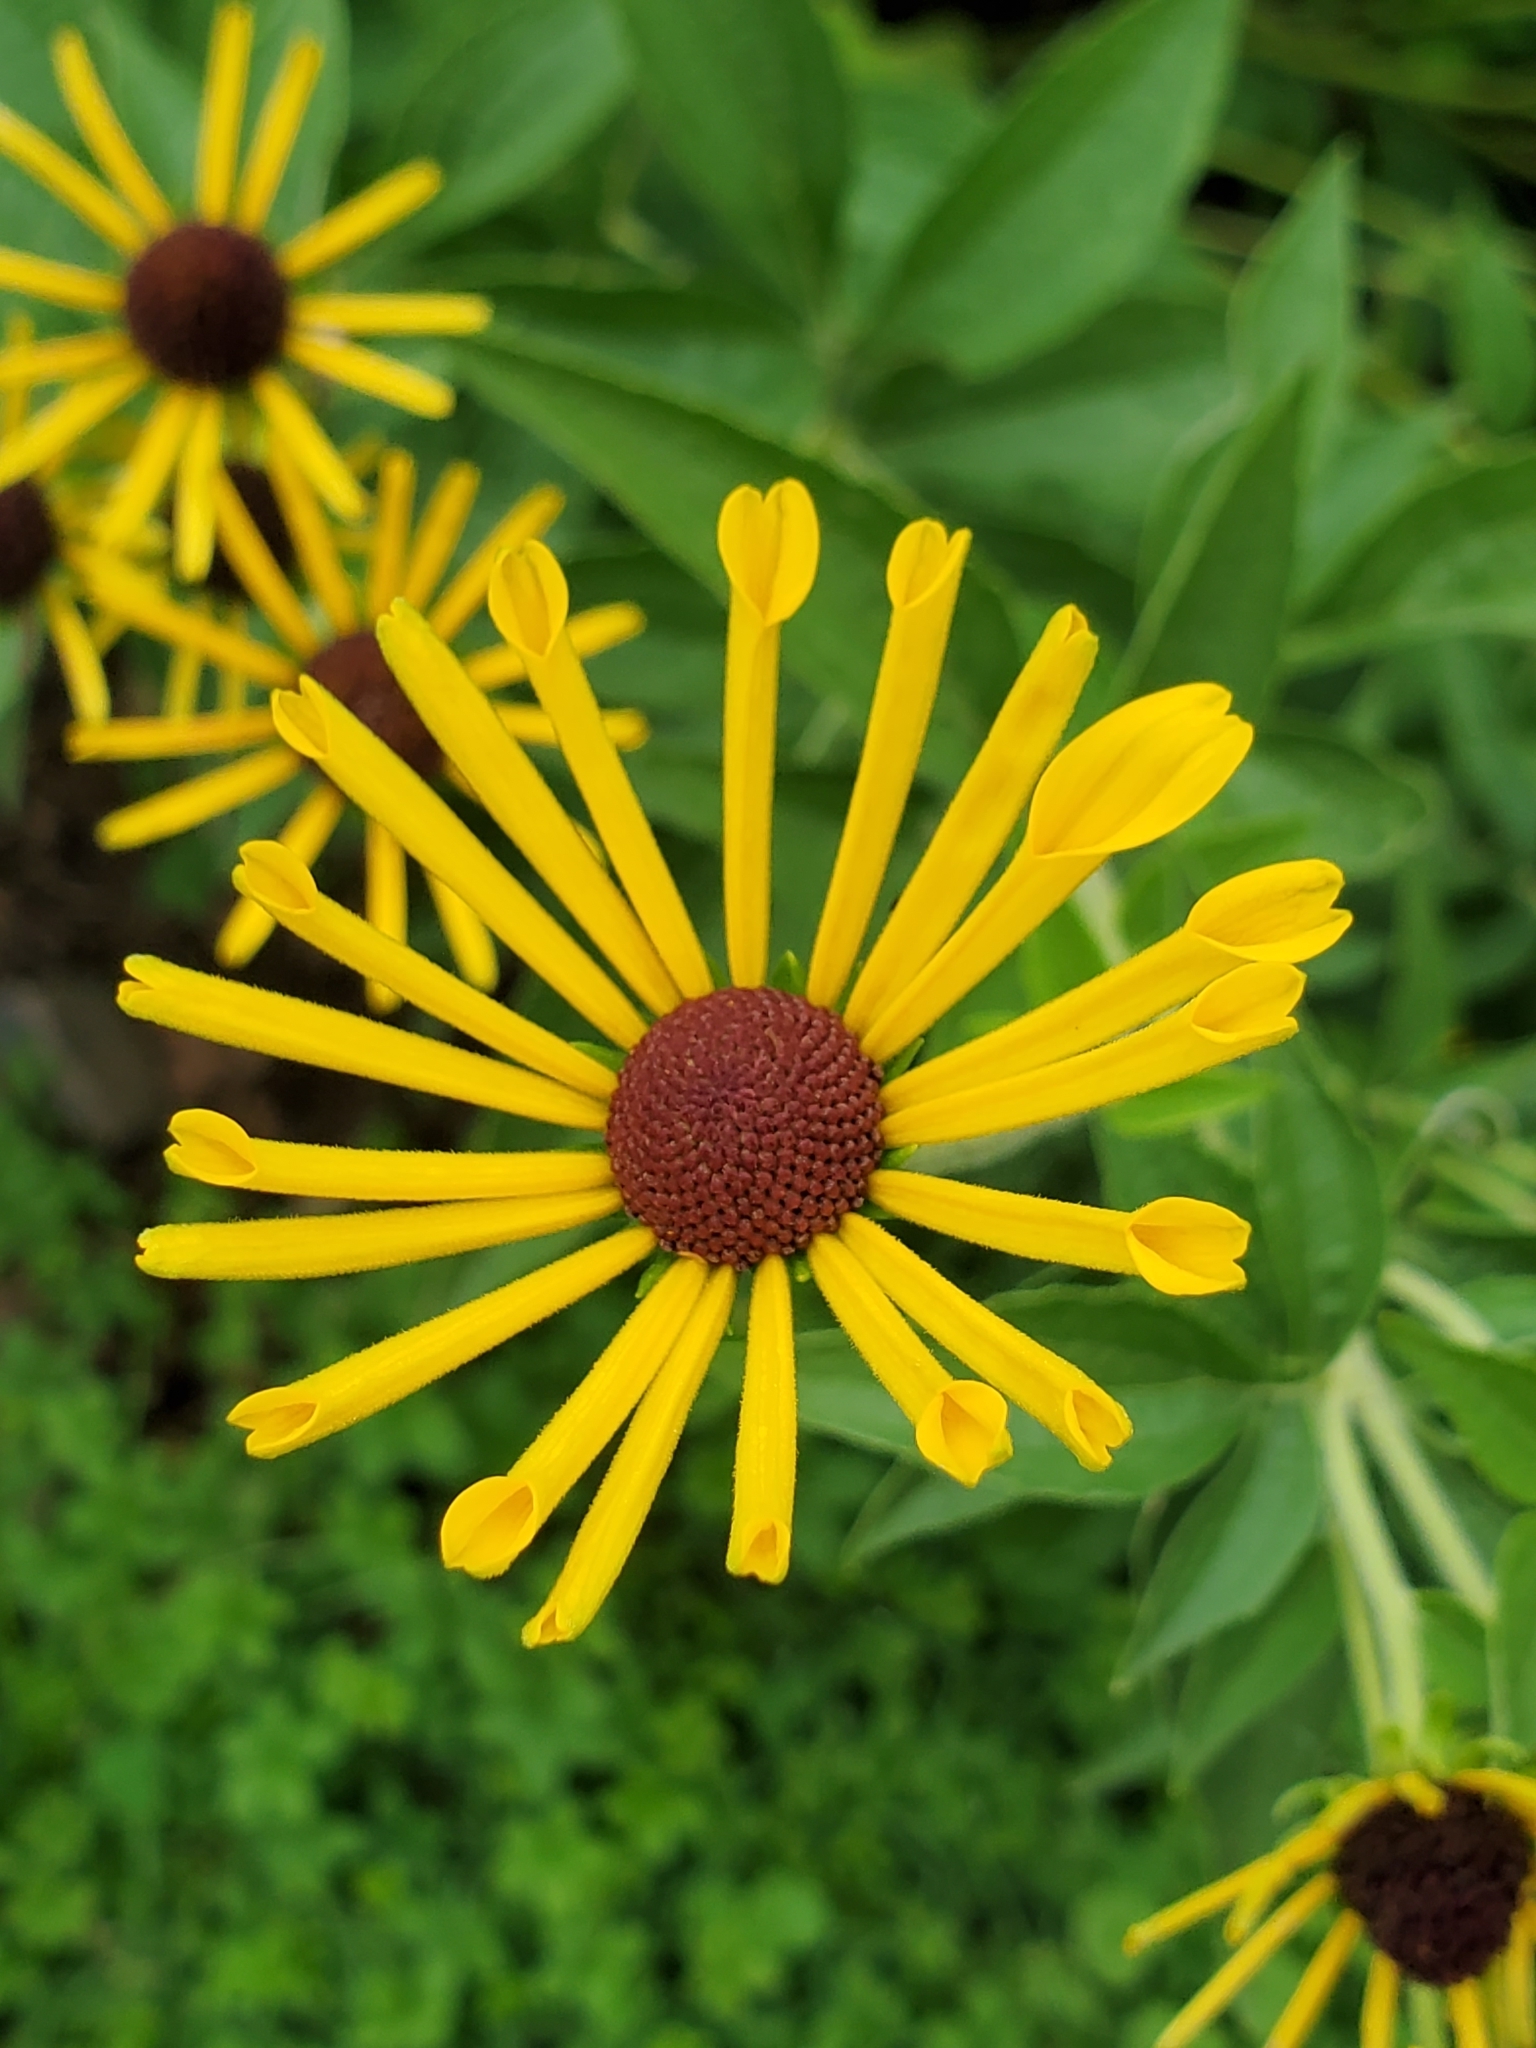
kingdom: Plantae
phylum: Tracheophyta
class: Magnoliopsida
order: Asterales
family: Asteraceae
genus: Rudbeckia
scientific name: Rudbeckia subtomentosa
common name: Sweet coneflower
